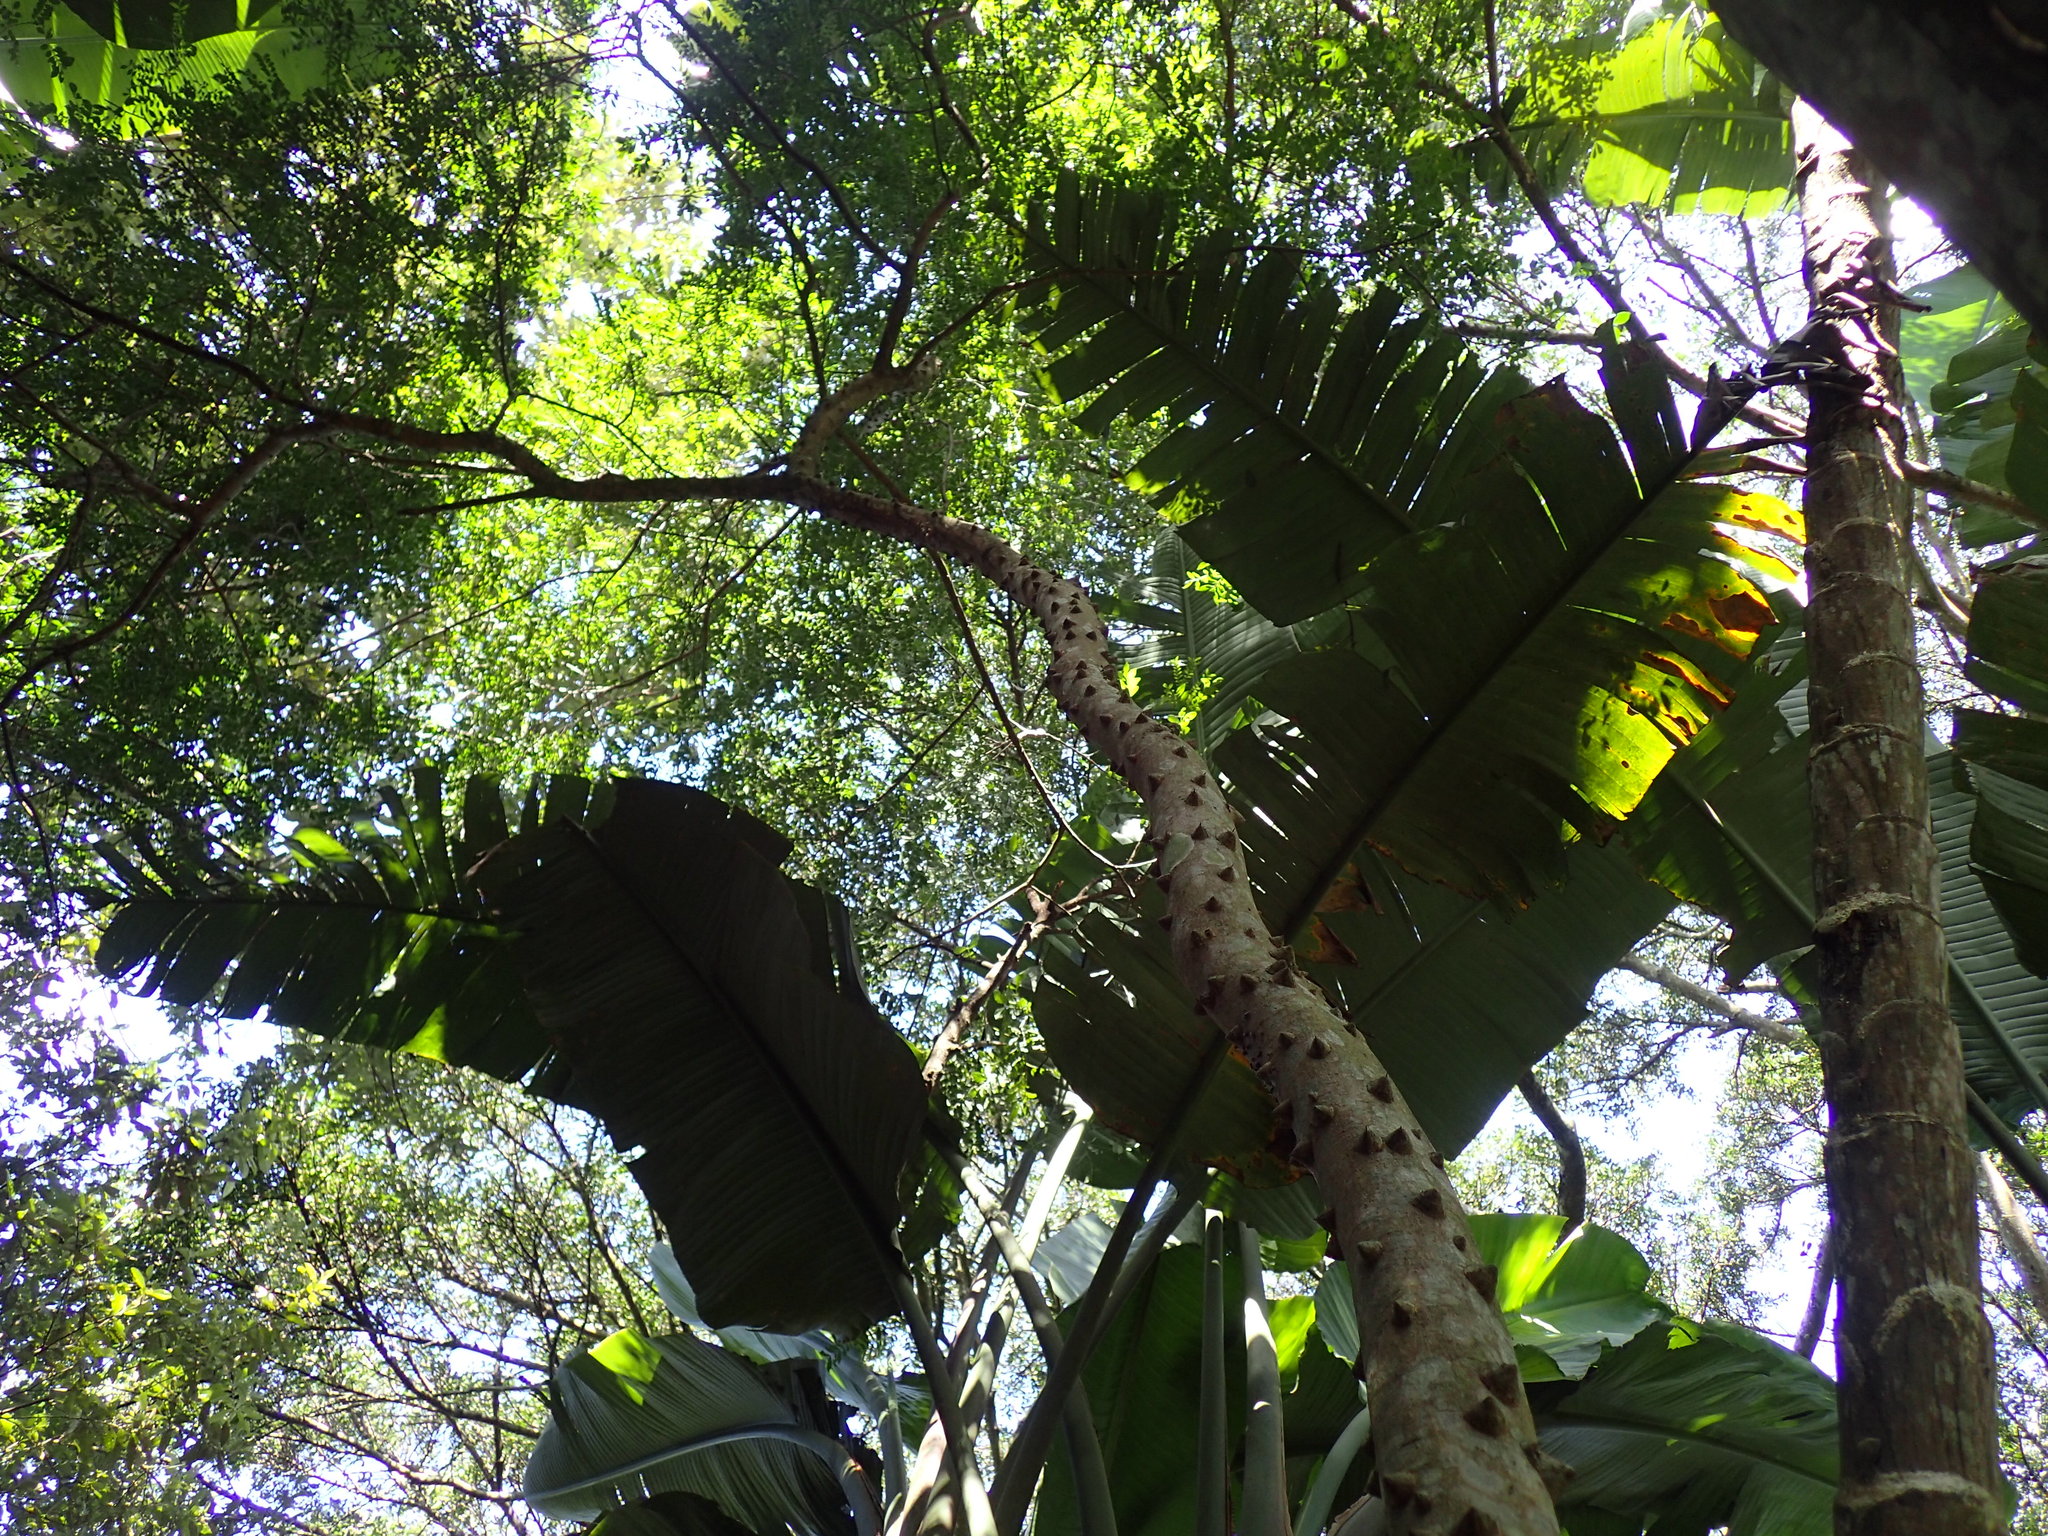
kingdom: Plantae
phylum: Tracheophyta
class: Magnoliopsida
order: Sapindales
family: Rutaceae
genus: Zanthoxylum
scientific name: Zanthoxylum capense
